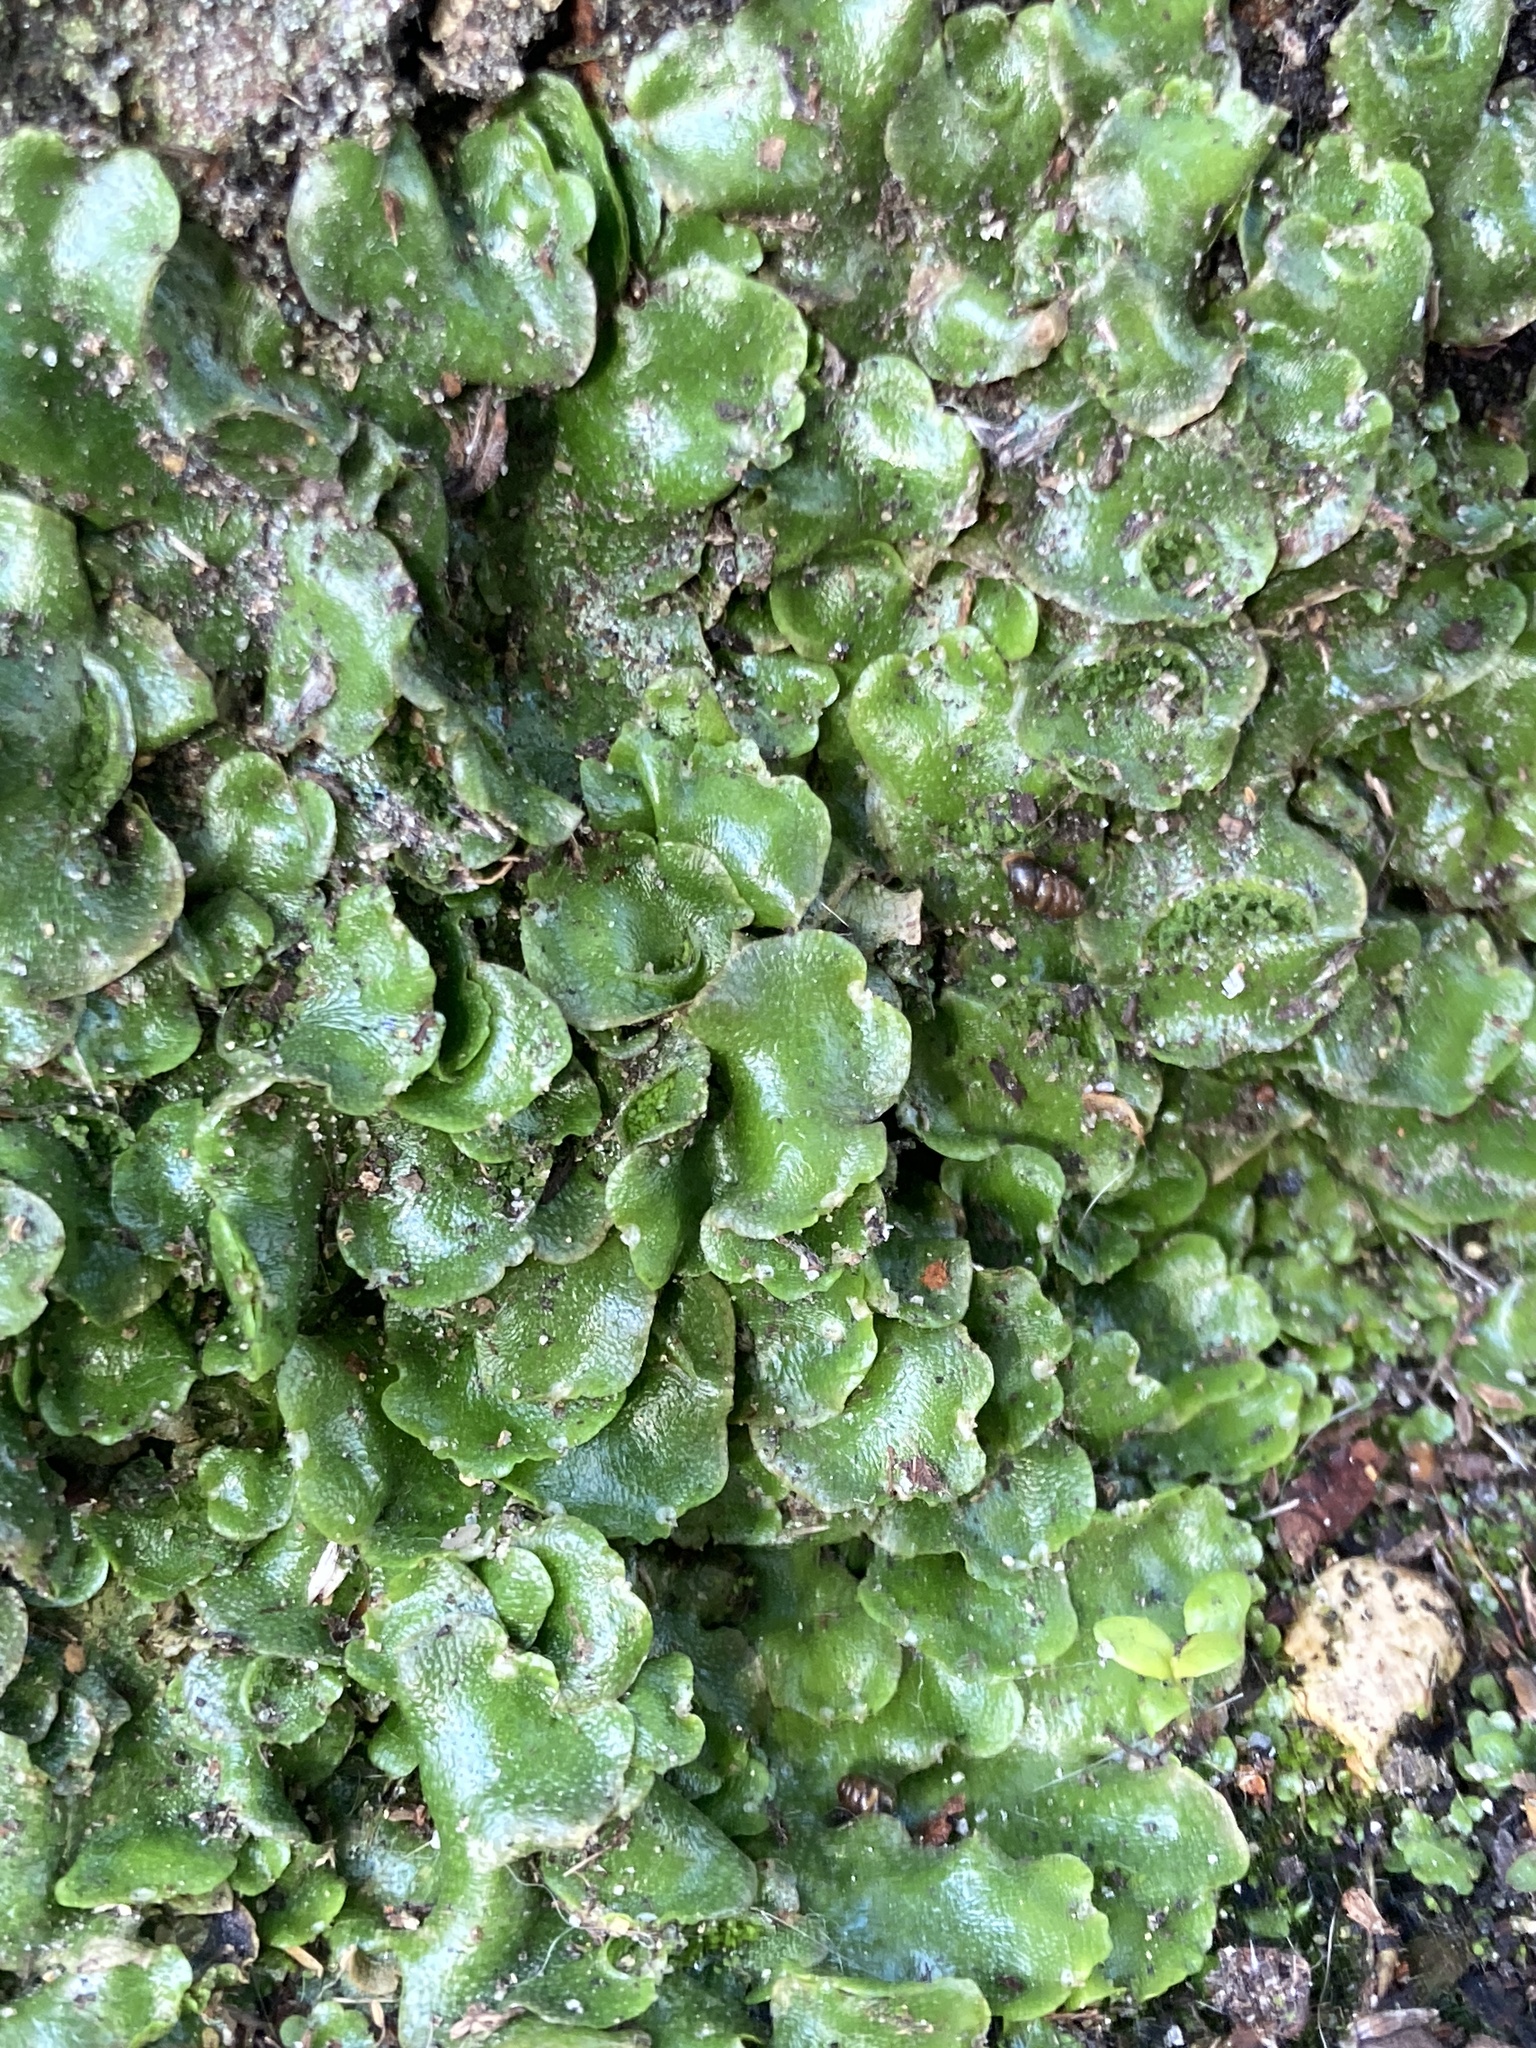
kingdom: Plantae
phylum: Marchantiophyta
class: Marchantiopsida
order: Lunulariales
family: Lunulariaceae
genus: Lunularia
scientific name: Lunularia cruciata
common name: Crescent-cup liverwort
